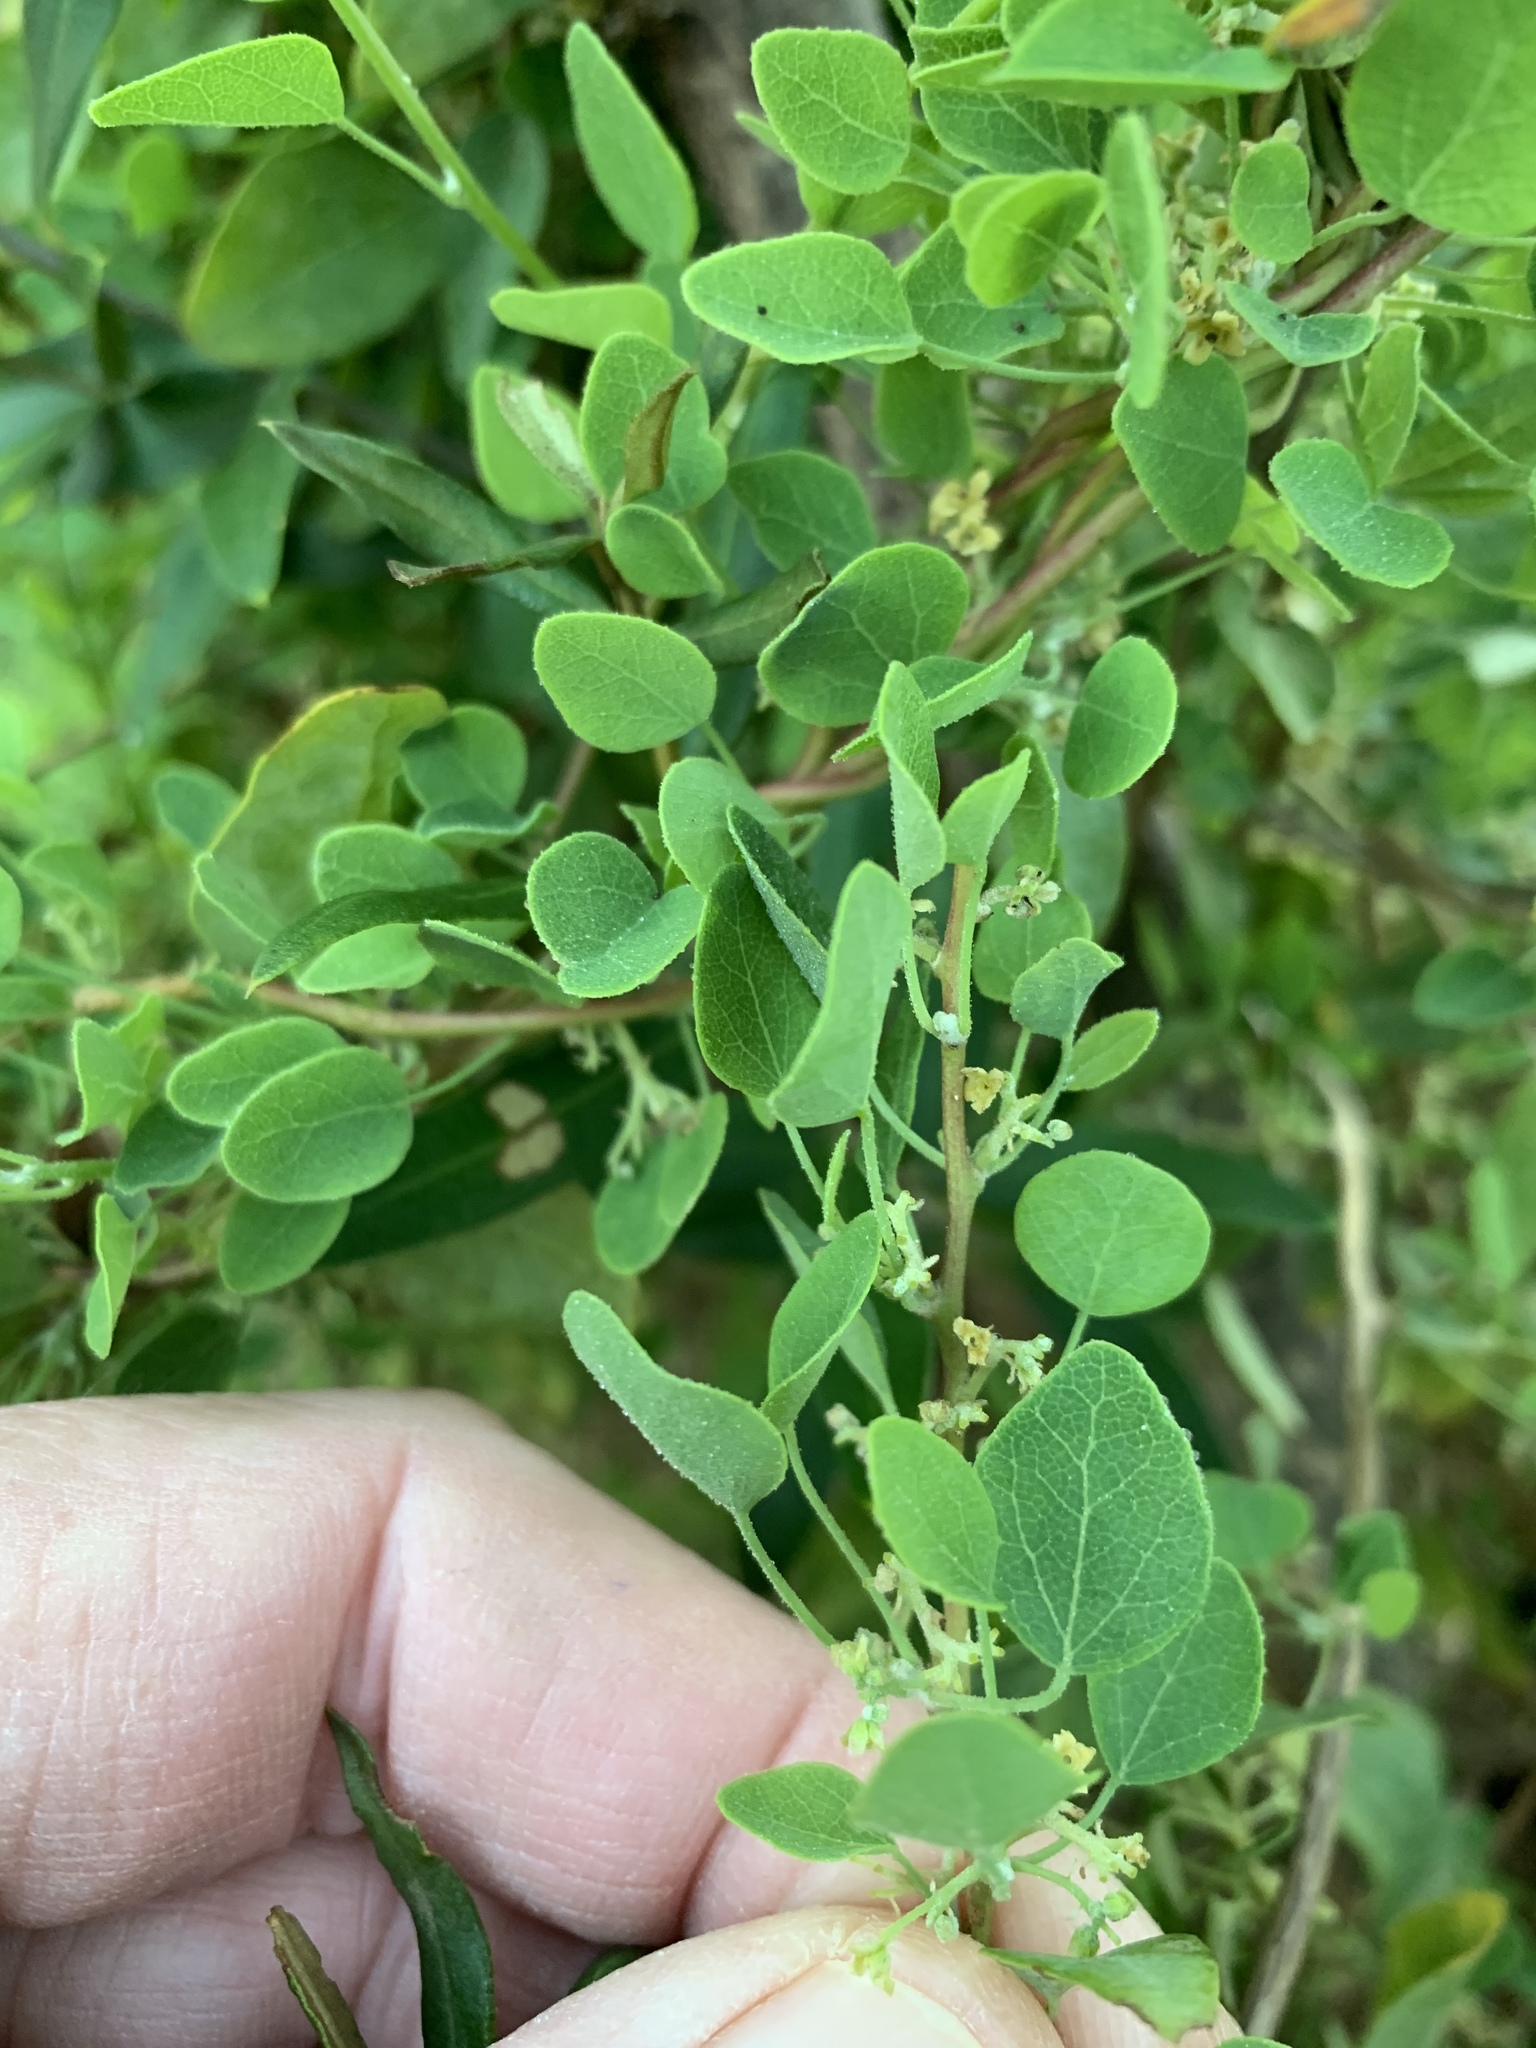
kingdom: Plantae
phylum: Tracheophyta
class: Magnoliopsida
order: Ranunculales
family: Menispermaceae
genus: Cissampelos
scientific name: Cissampelos capensis
